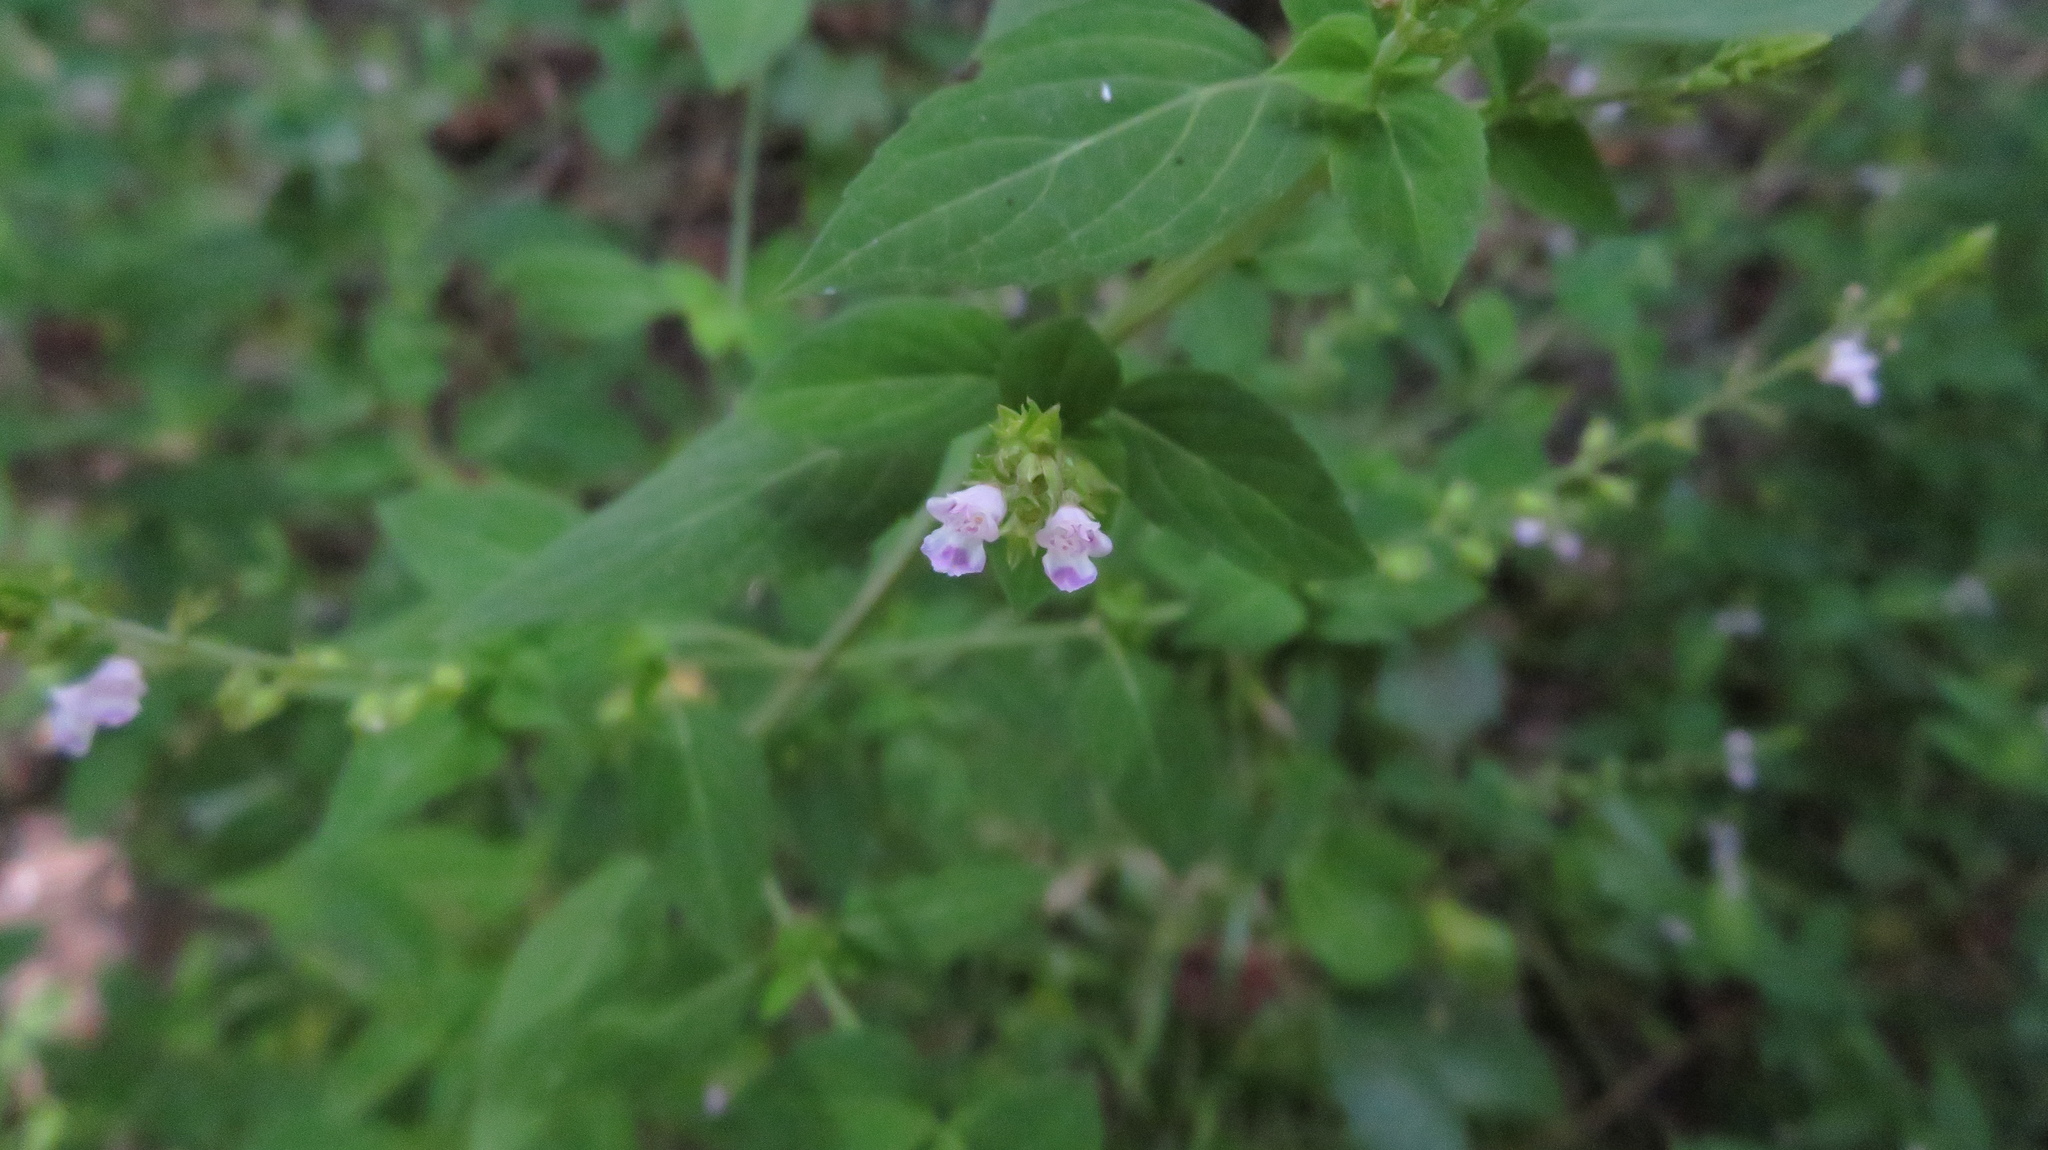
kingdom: Plantae
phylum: Tracheophyta
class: Magnoliopsida
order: Lamiales
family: Lamiaceae
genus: Mosla
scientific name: Mosla dianthera
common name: Miniature beefsteakplant
